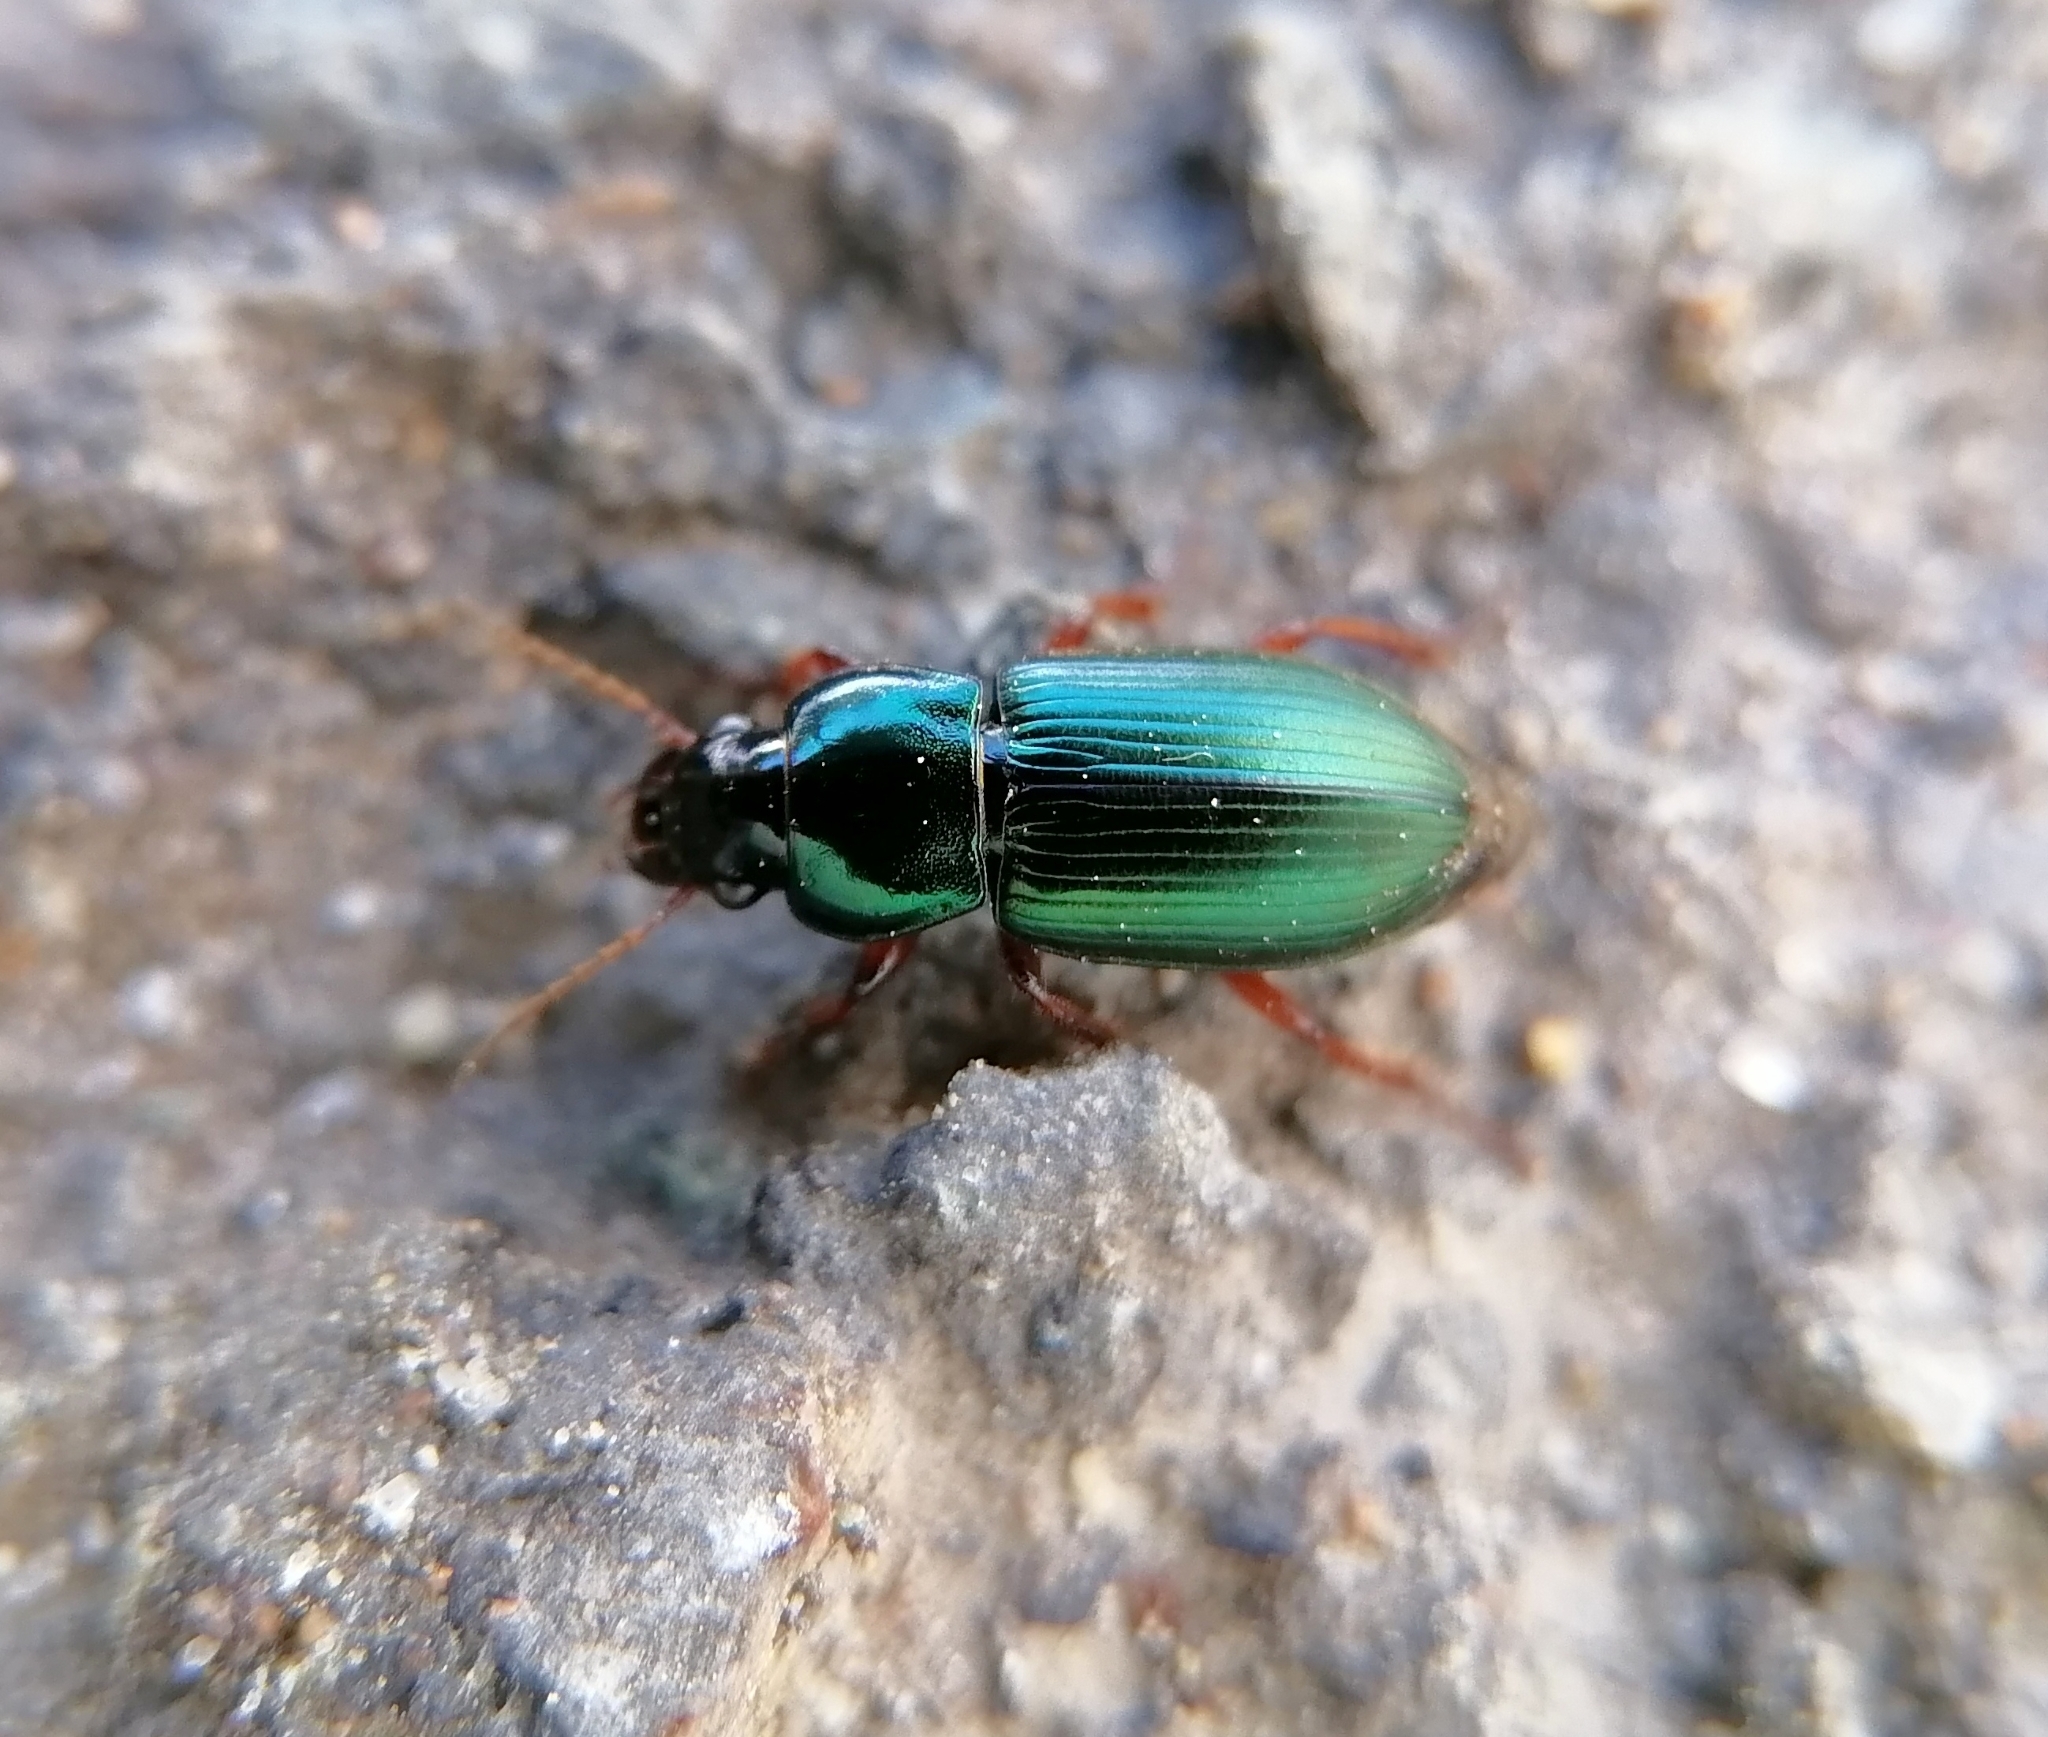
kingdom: Animalia
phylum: Arthropoda
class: Insecta
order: Coleoptera
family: Carabidae
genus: Harpalus
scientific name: Harpalus affinis
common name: Polychrome harp ground beetle
